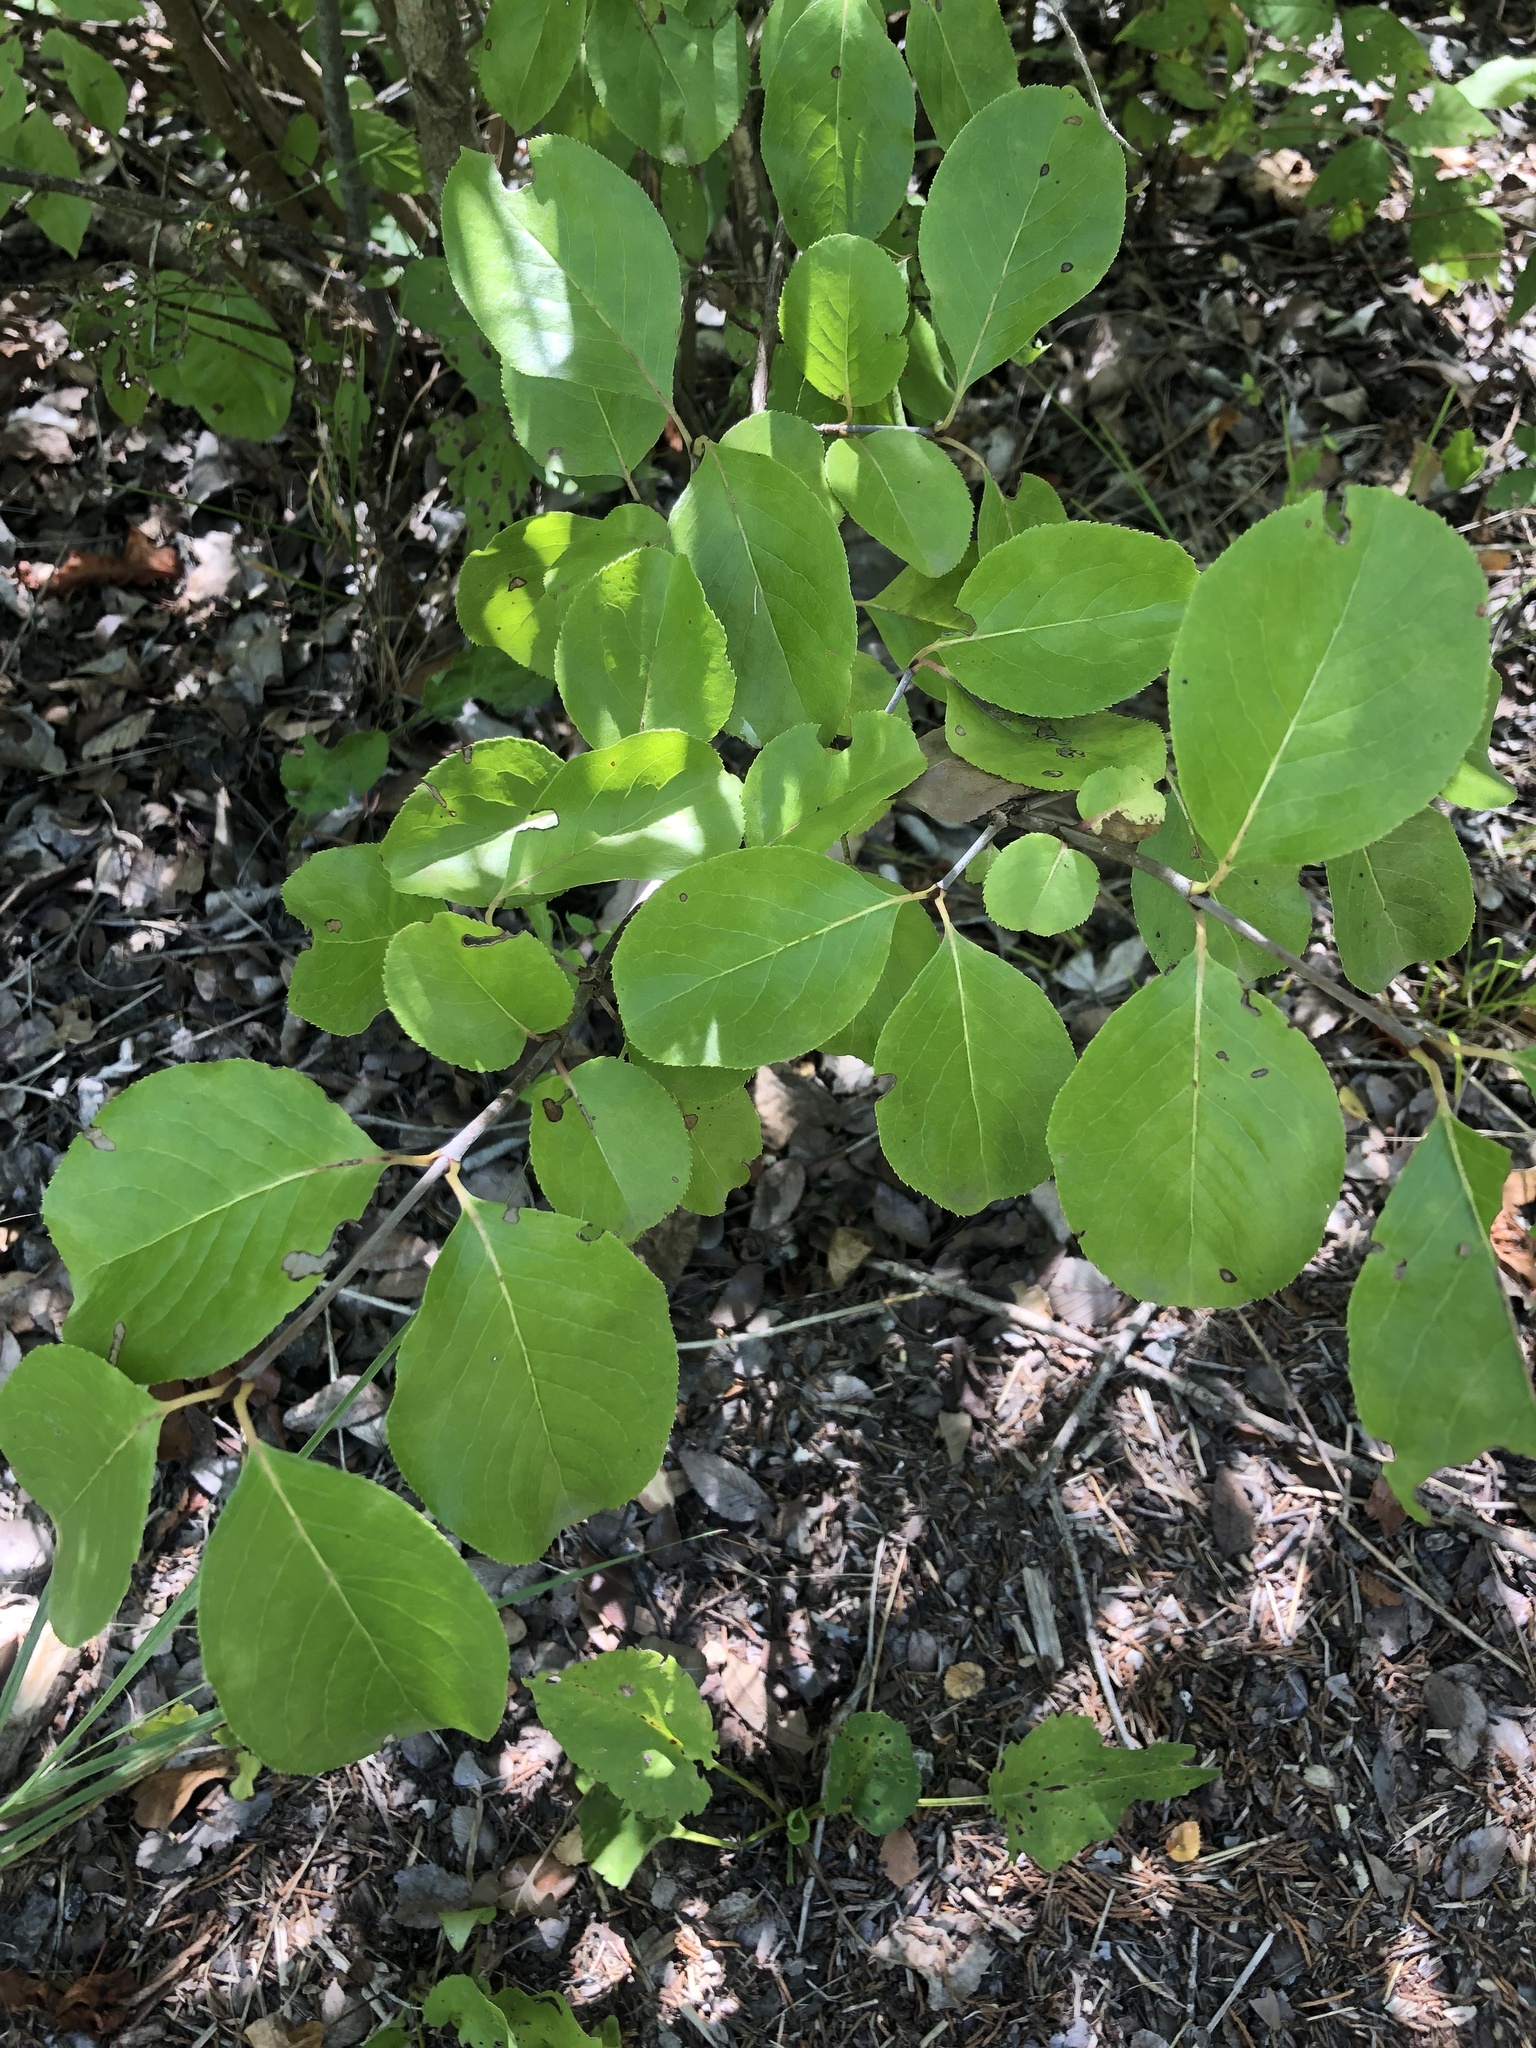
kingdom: Plantae
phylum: Tracheophyta
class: Magnoliopsida
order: Dipsacales
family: Viburnaceae
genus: Viburnum
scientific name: Viburnum rufidulum
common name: Blue haw
